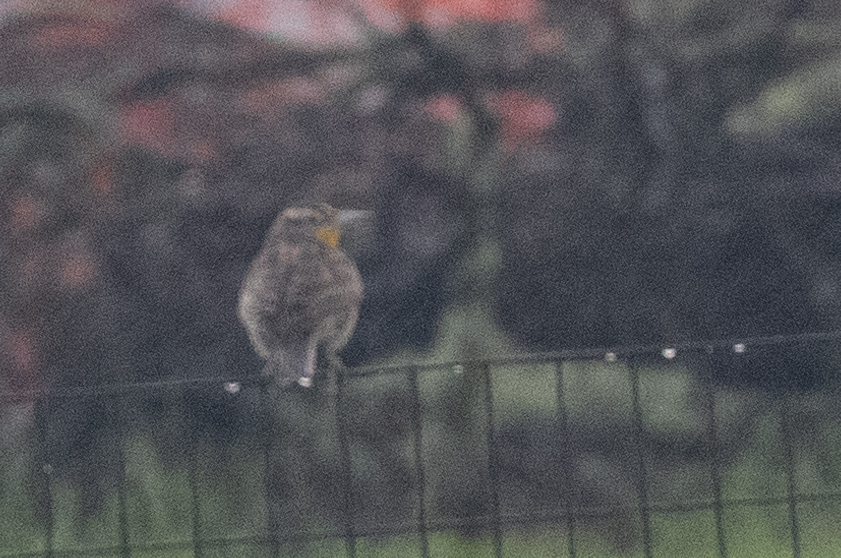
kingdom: Animalia
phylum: Chordata
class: Aves
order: Passeriformes
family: Icteridae
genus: Sturnella
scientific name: Sturnella neglecta
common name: Western meadowlark
